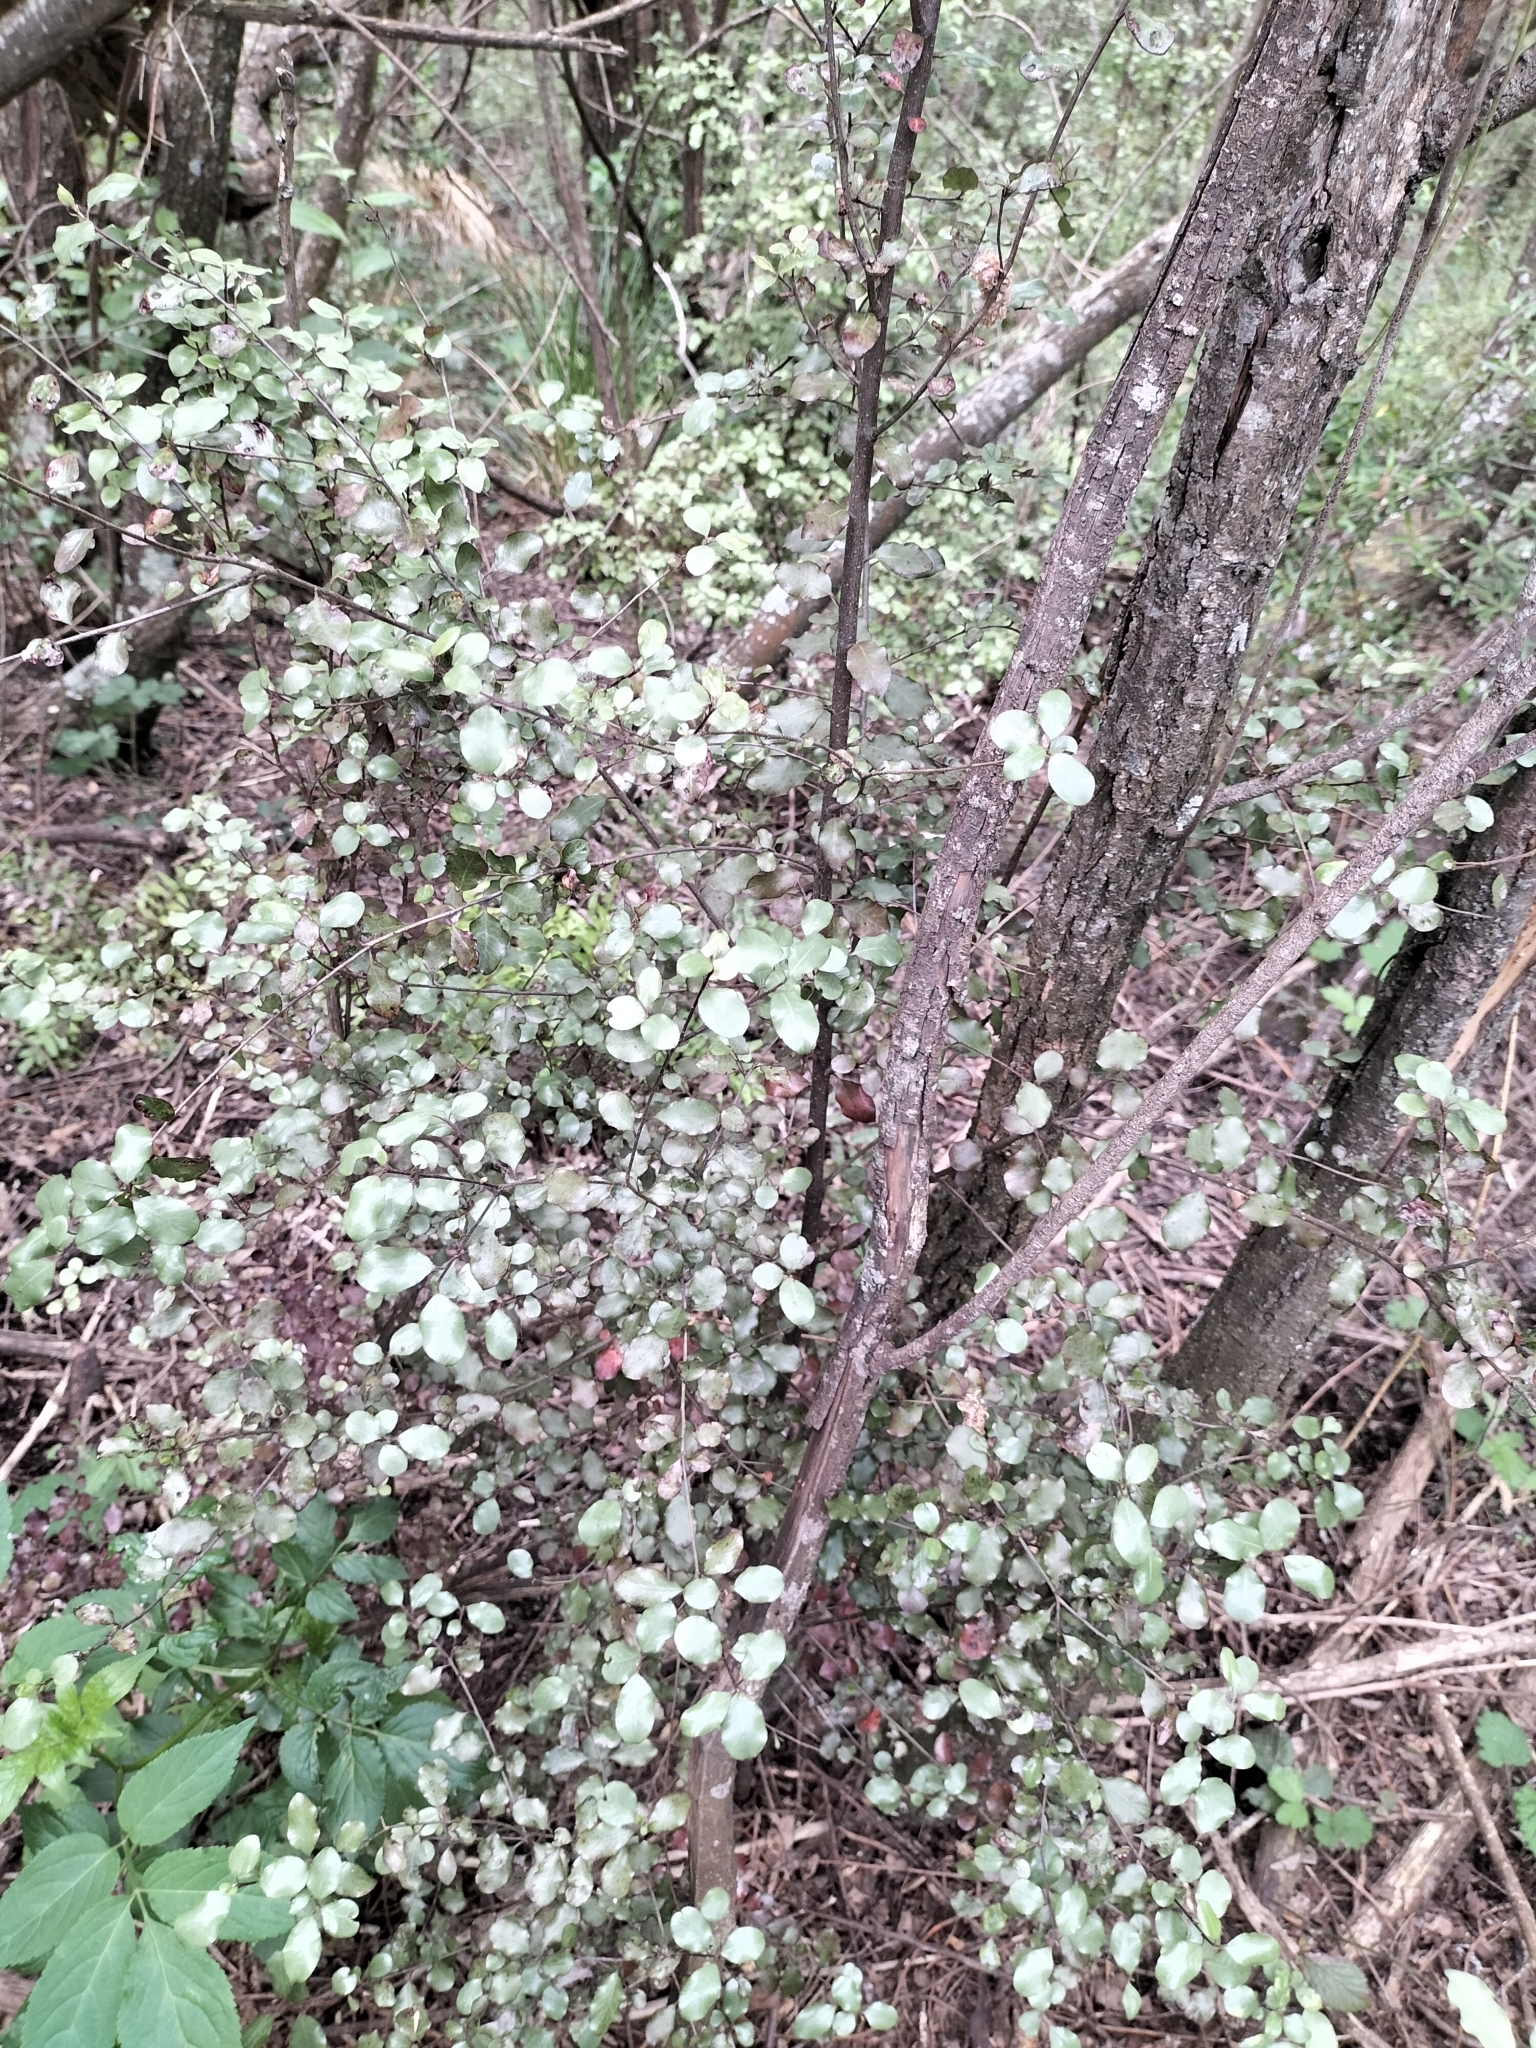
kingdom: Plantae
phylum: Tracheophyta
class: Magnoliopsida
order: Apiales
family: Pittosporaceae
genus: Pittosporum
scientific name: Pittosporum tenuifolium
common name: Kohuhu
